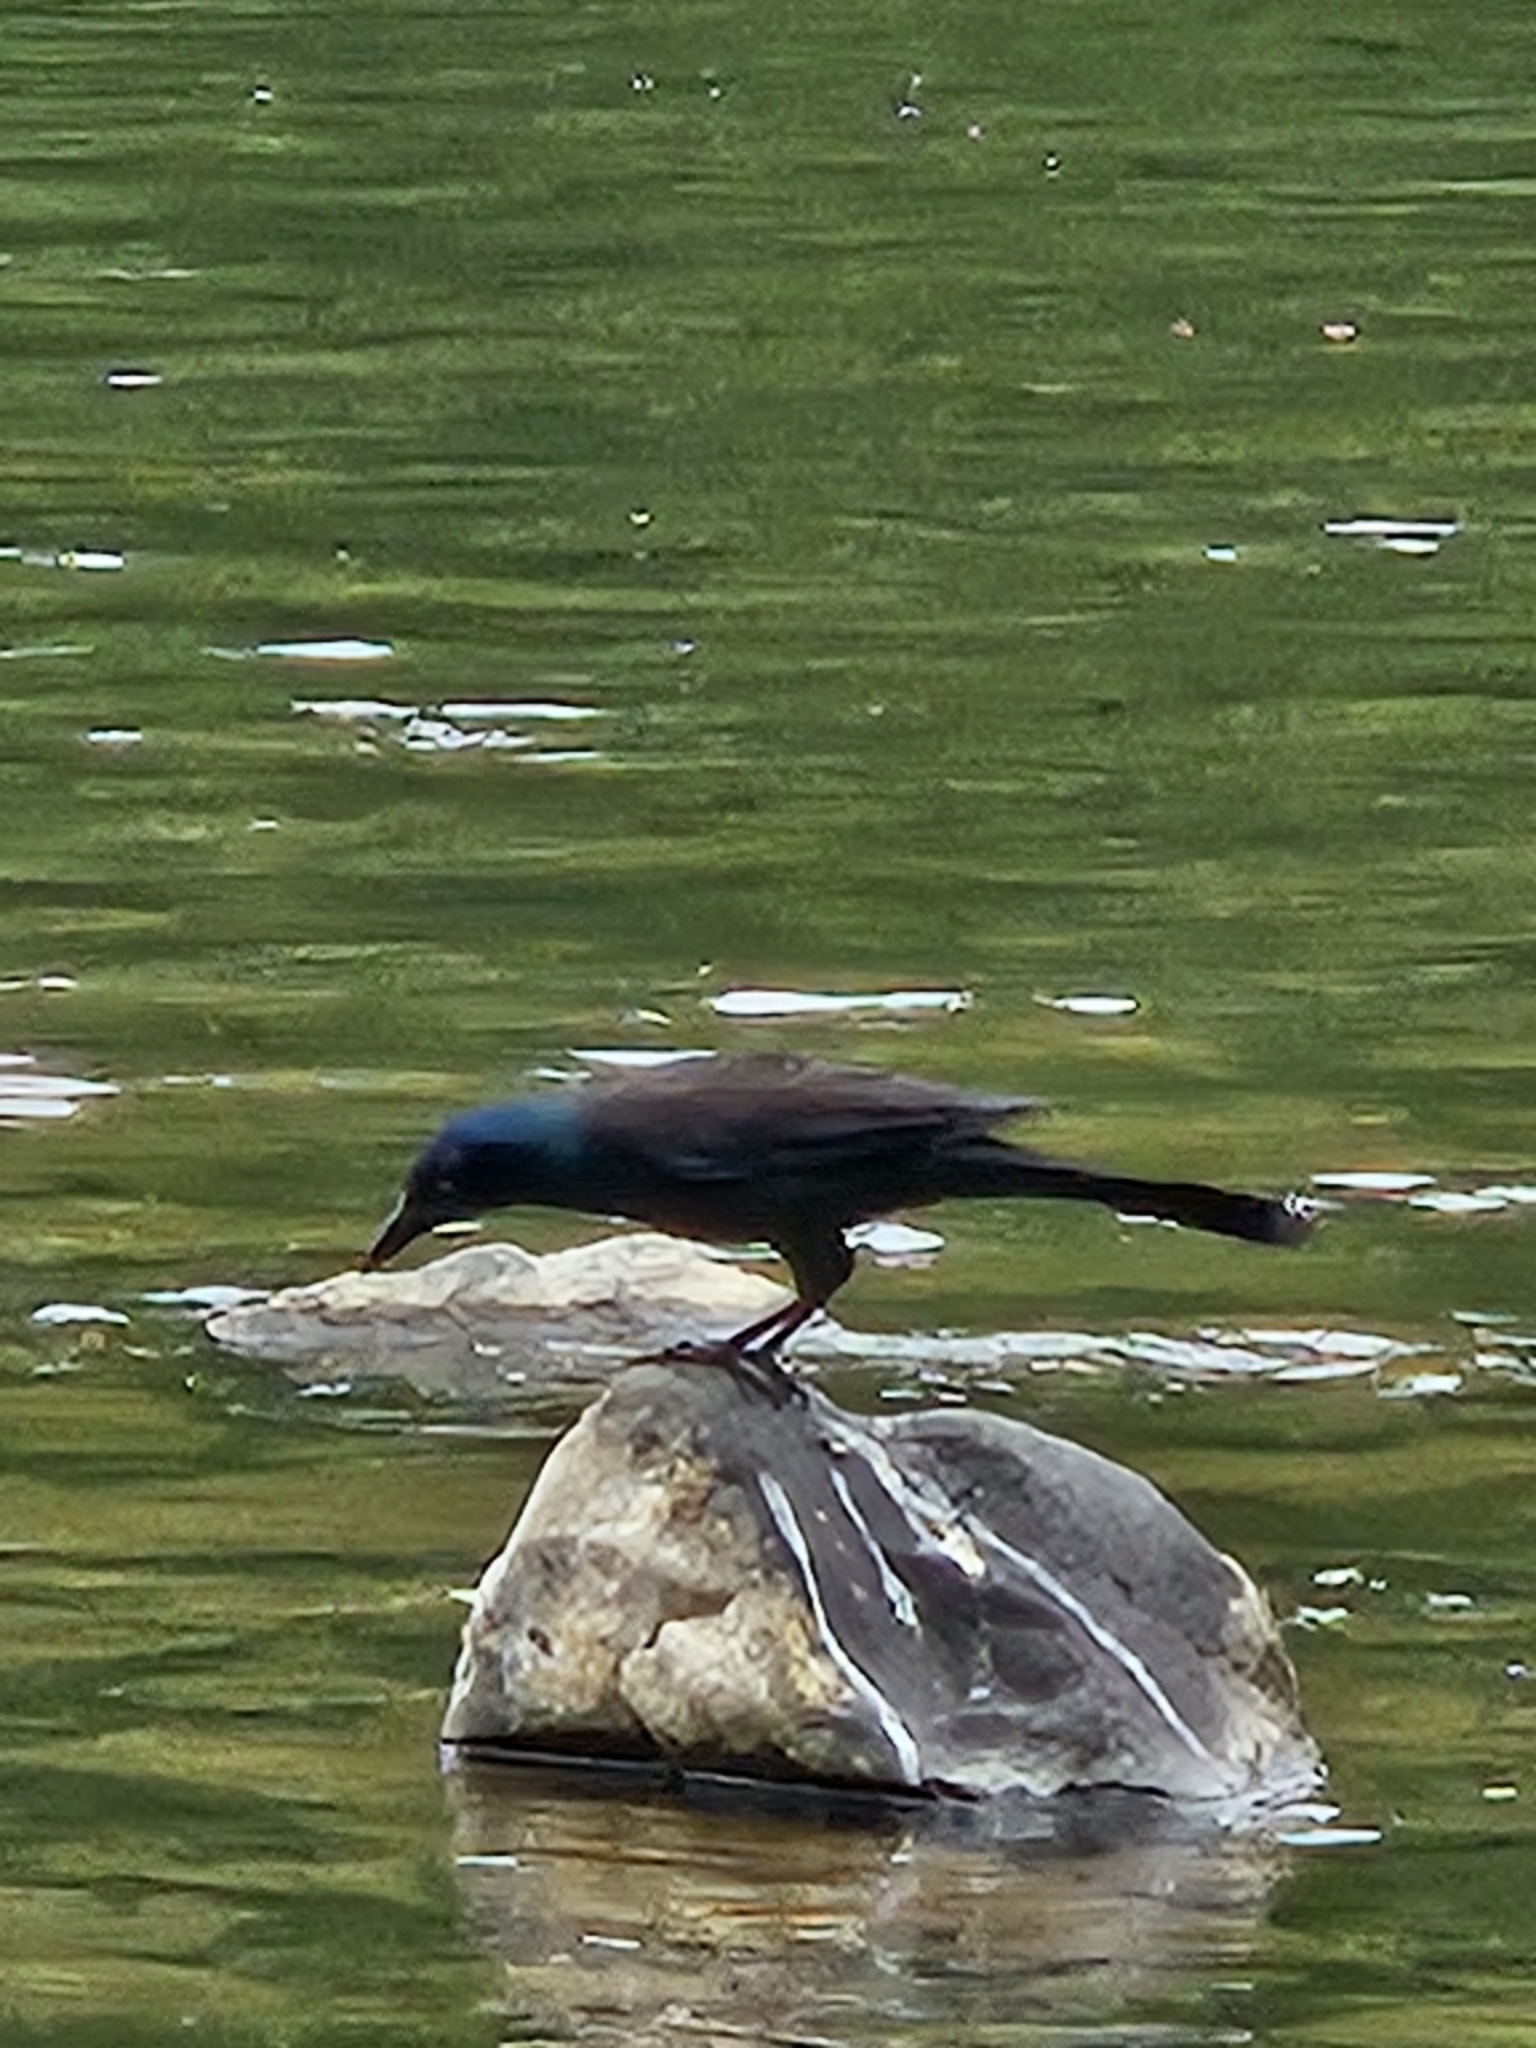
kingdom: Animalia
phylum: Chordata
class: Aves
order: Passeriformes
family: Icteridae
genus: Quiscalus
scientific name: Quiscalus quiscula
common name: Common grackle
